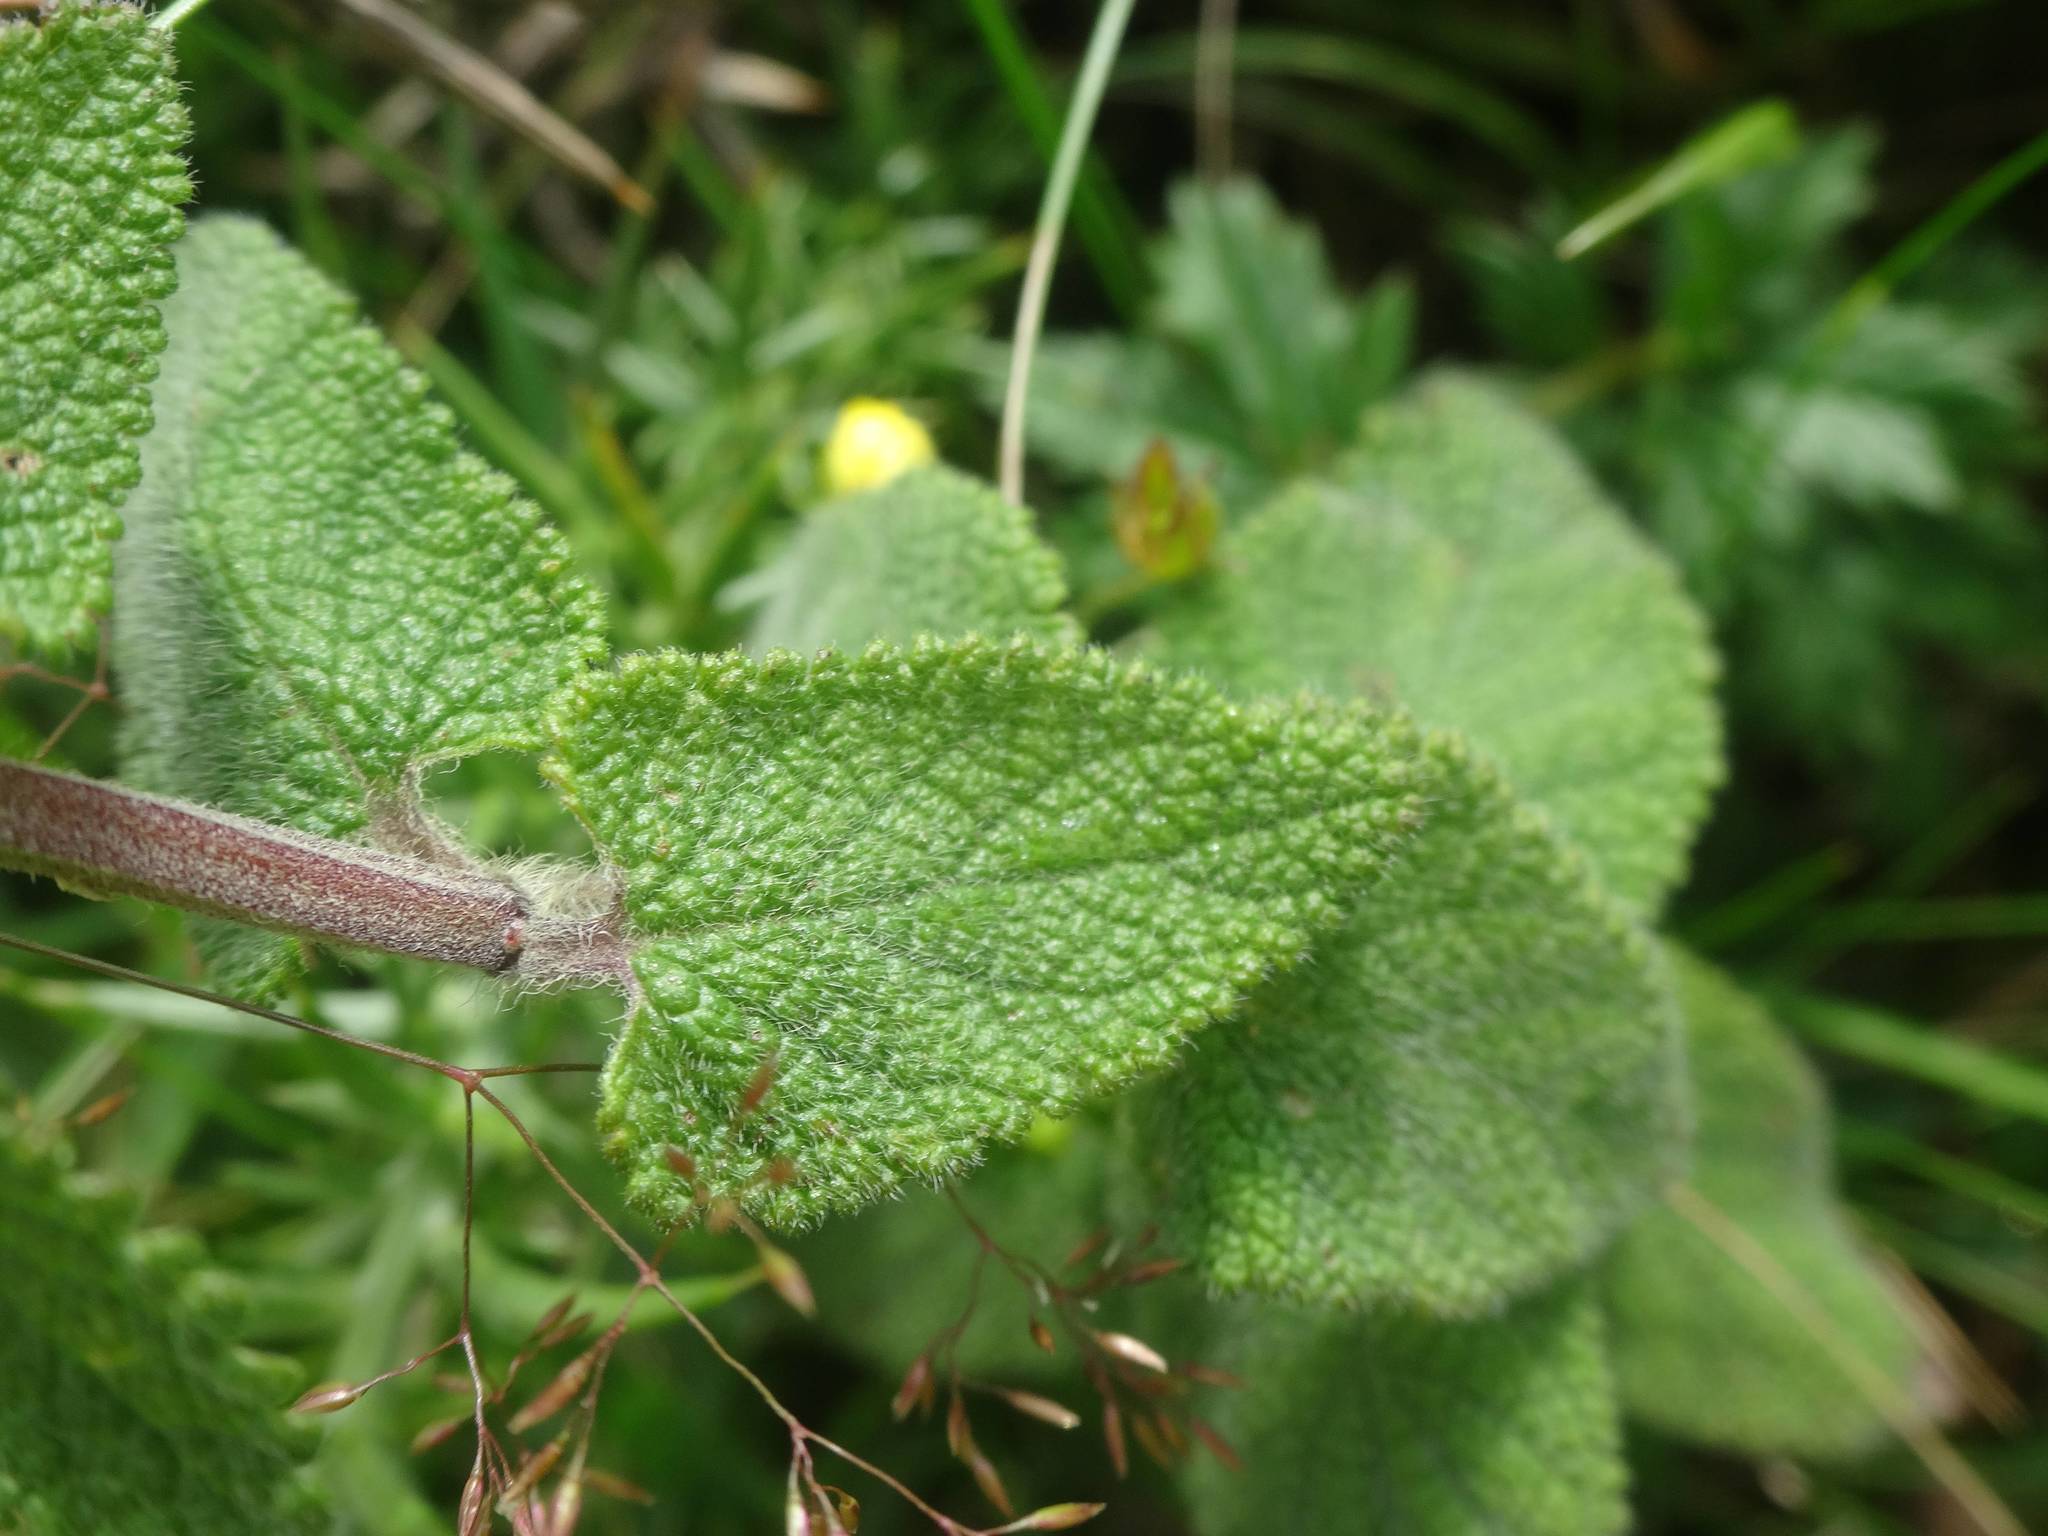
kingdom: Plantae
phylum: Tracheophyta
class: Magnoliopsida
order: Lamiales
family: Lamiaceae
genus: Teucrium
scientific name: Teucrium scorodonia
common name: Woodland germander
